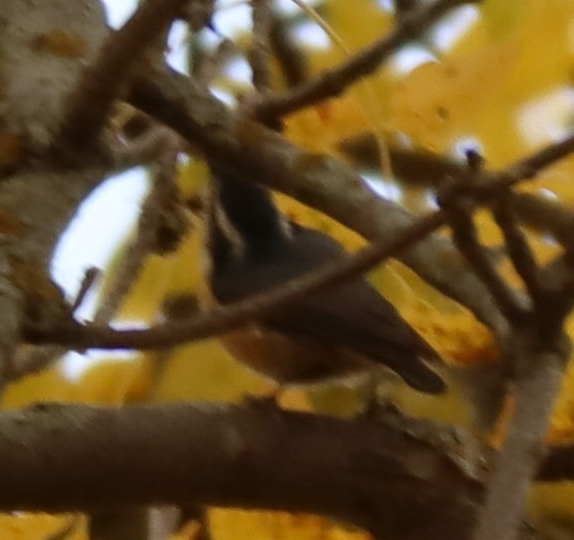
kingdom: Animalia
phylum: Chordata
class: Aves
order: Passeriformes
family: Sittidae
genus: Sitta
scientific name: Sitta canadensis
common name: Red-breasted nuthatch
